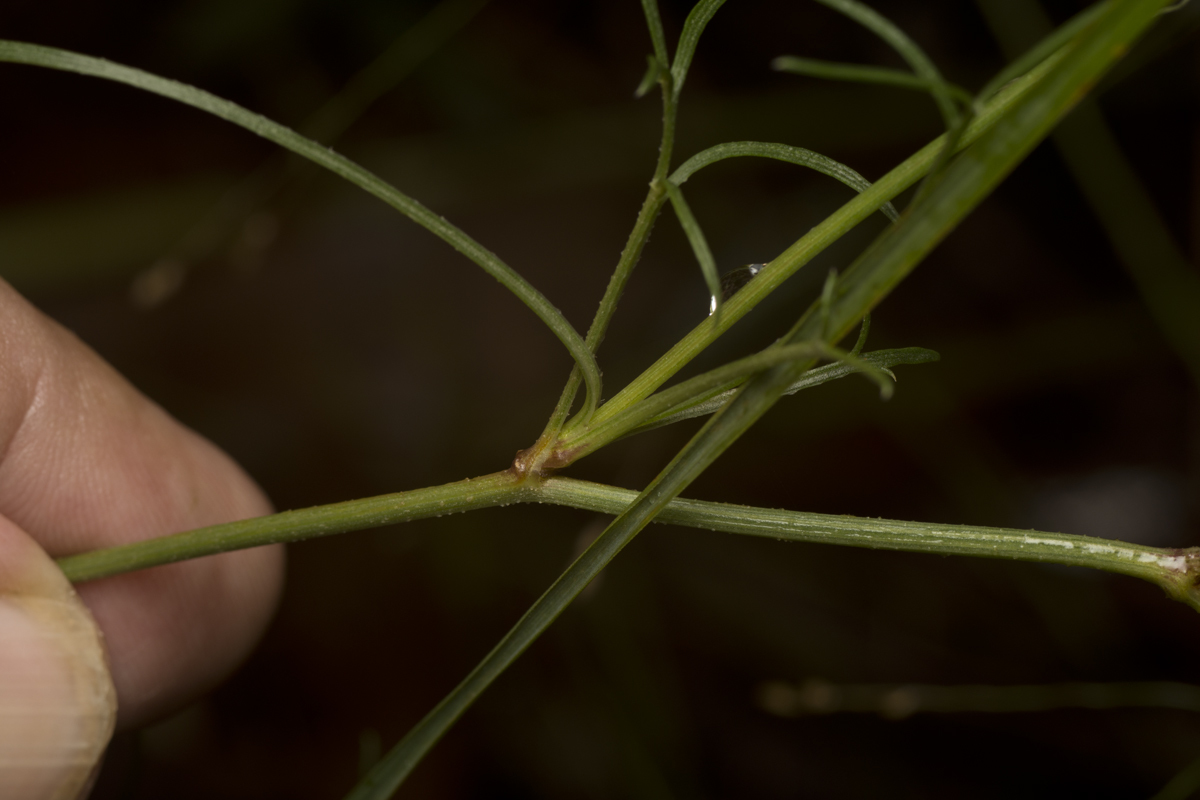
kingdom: Plantae
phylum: Tracheophyta
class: Magnoliopsida
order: Asterales
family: Asteraceae
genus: Glossocardia
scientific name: Glossocardia bidens
